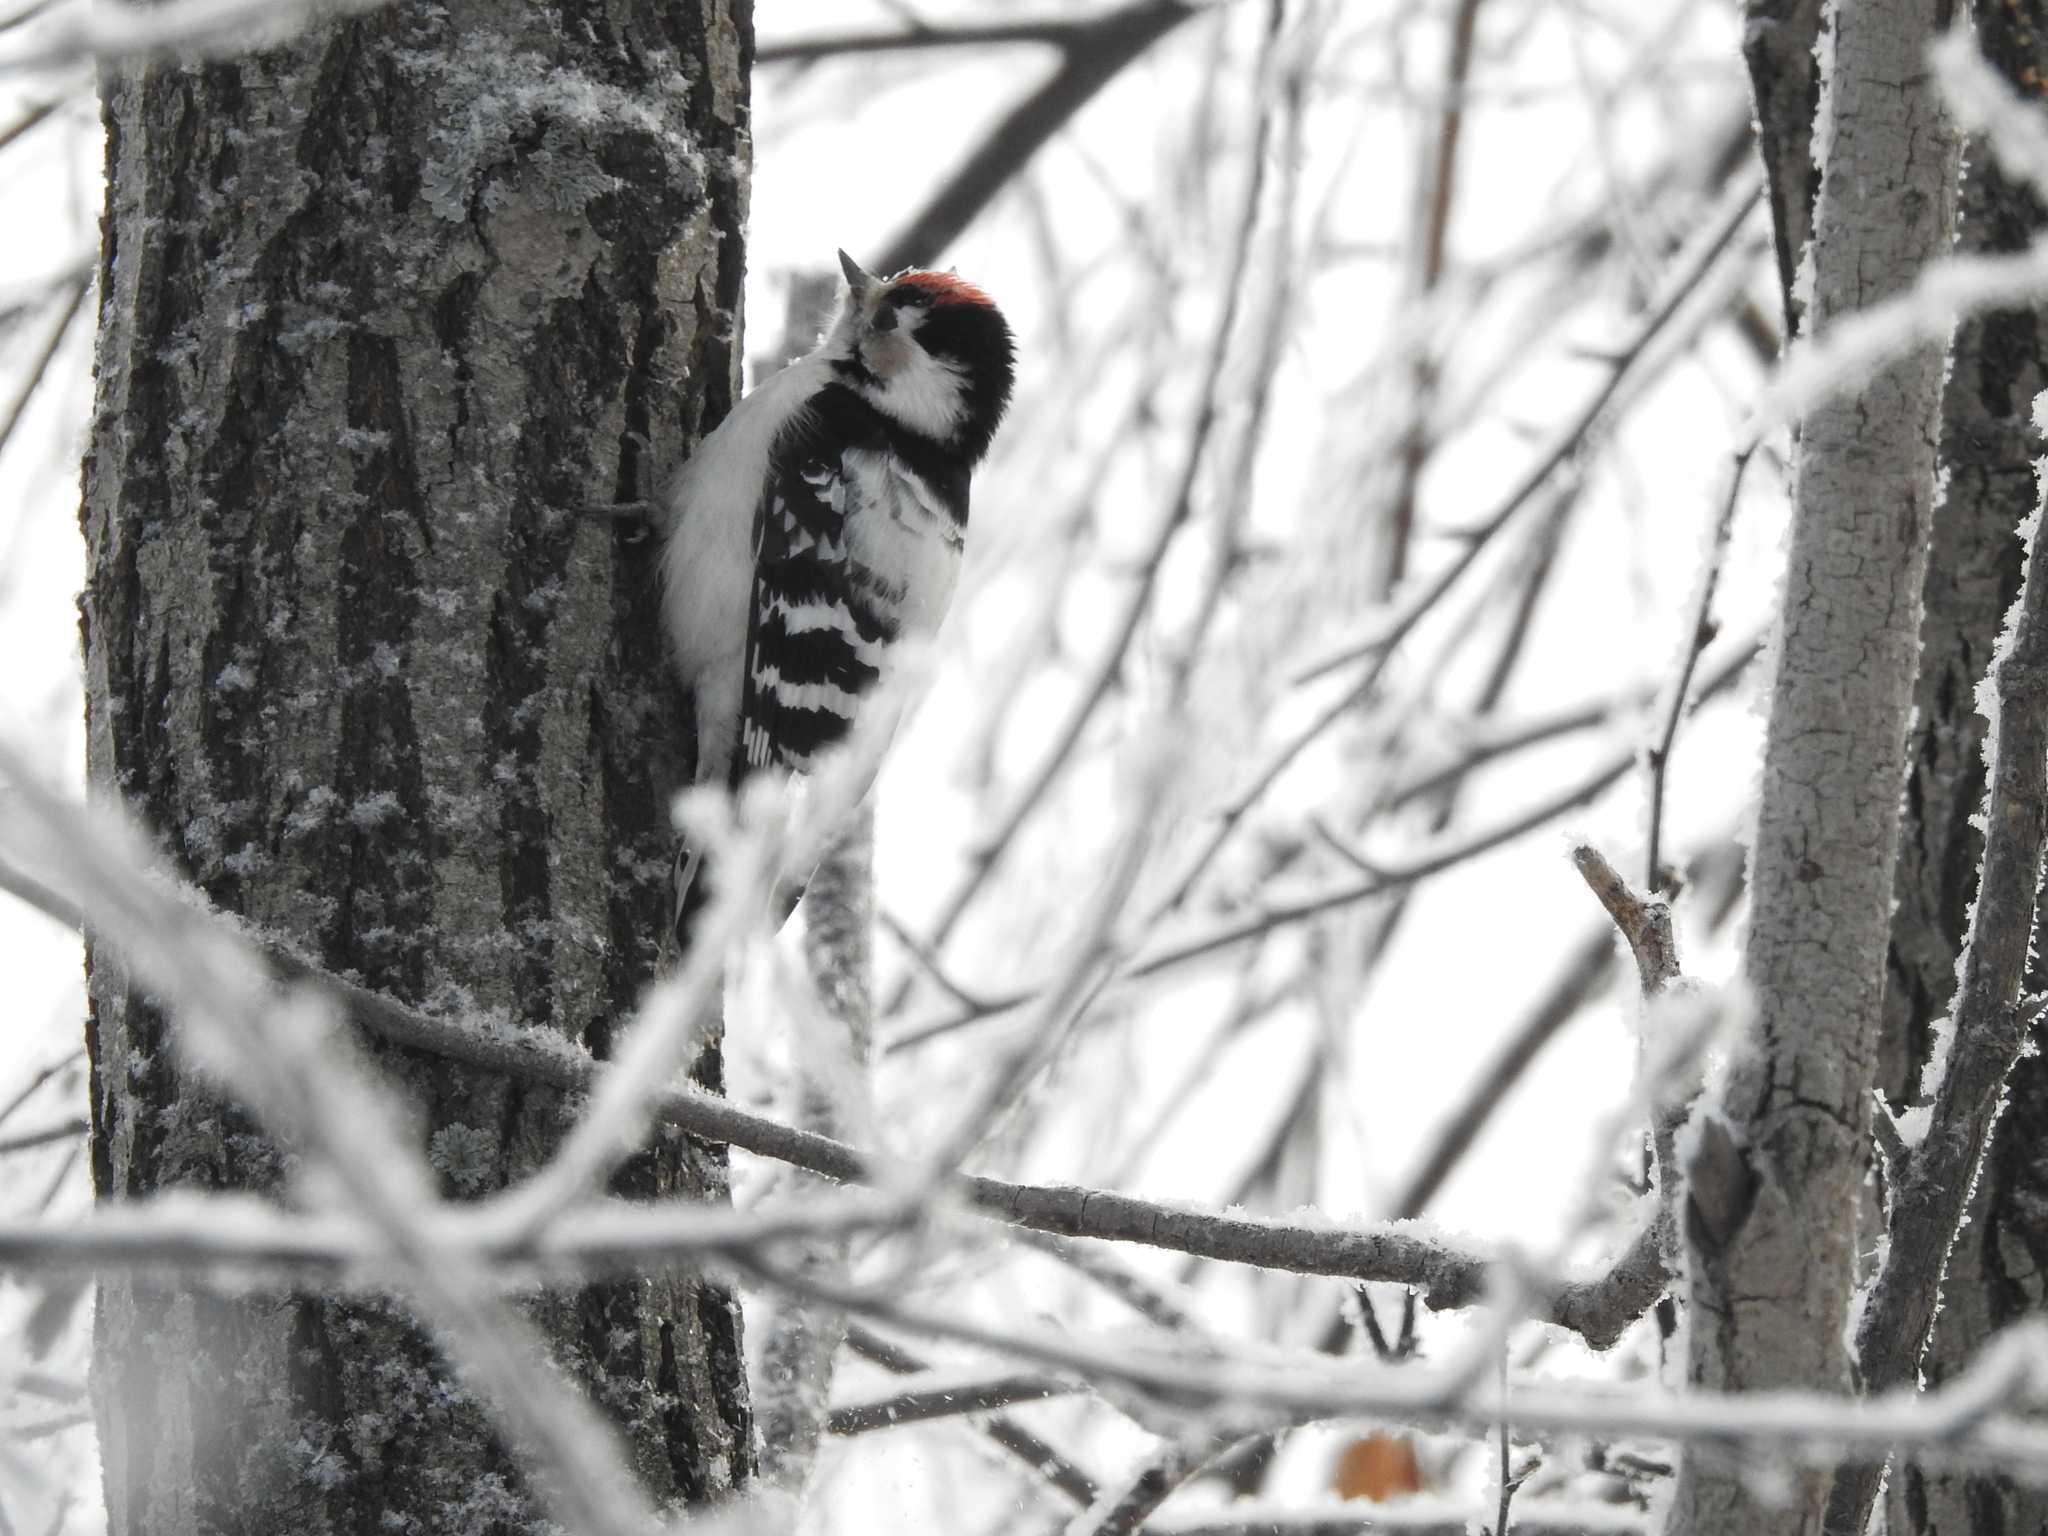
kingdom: Animalia
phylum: Chordata
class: Aves
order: Piciformes
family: Picidae
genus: Dryobates
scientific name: Dryobates minor
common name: Lesser spotted woodpecker
